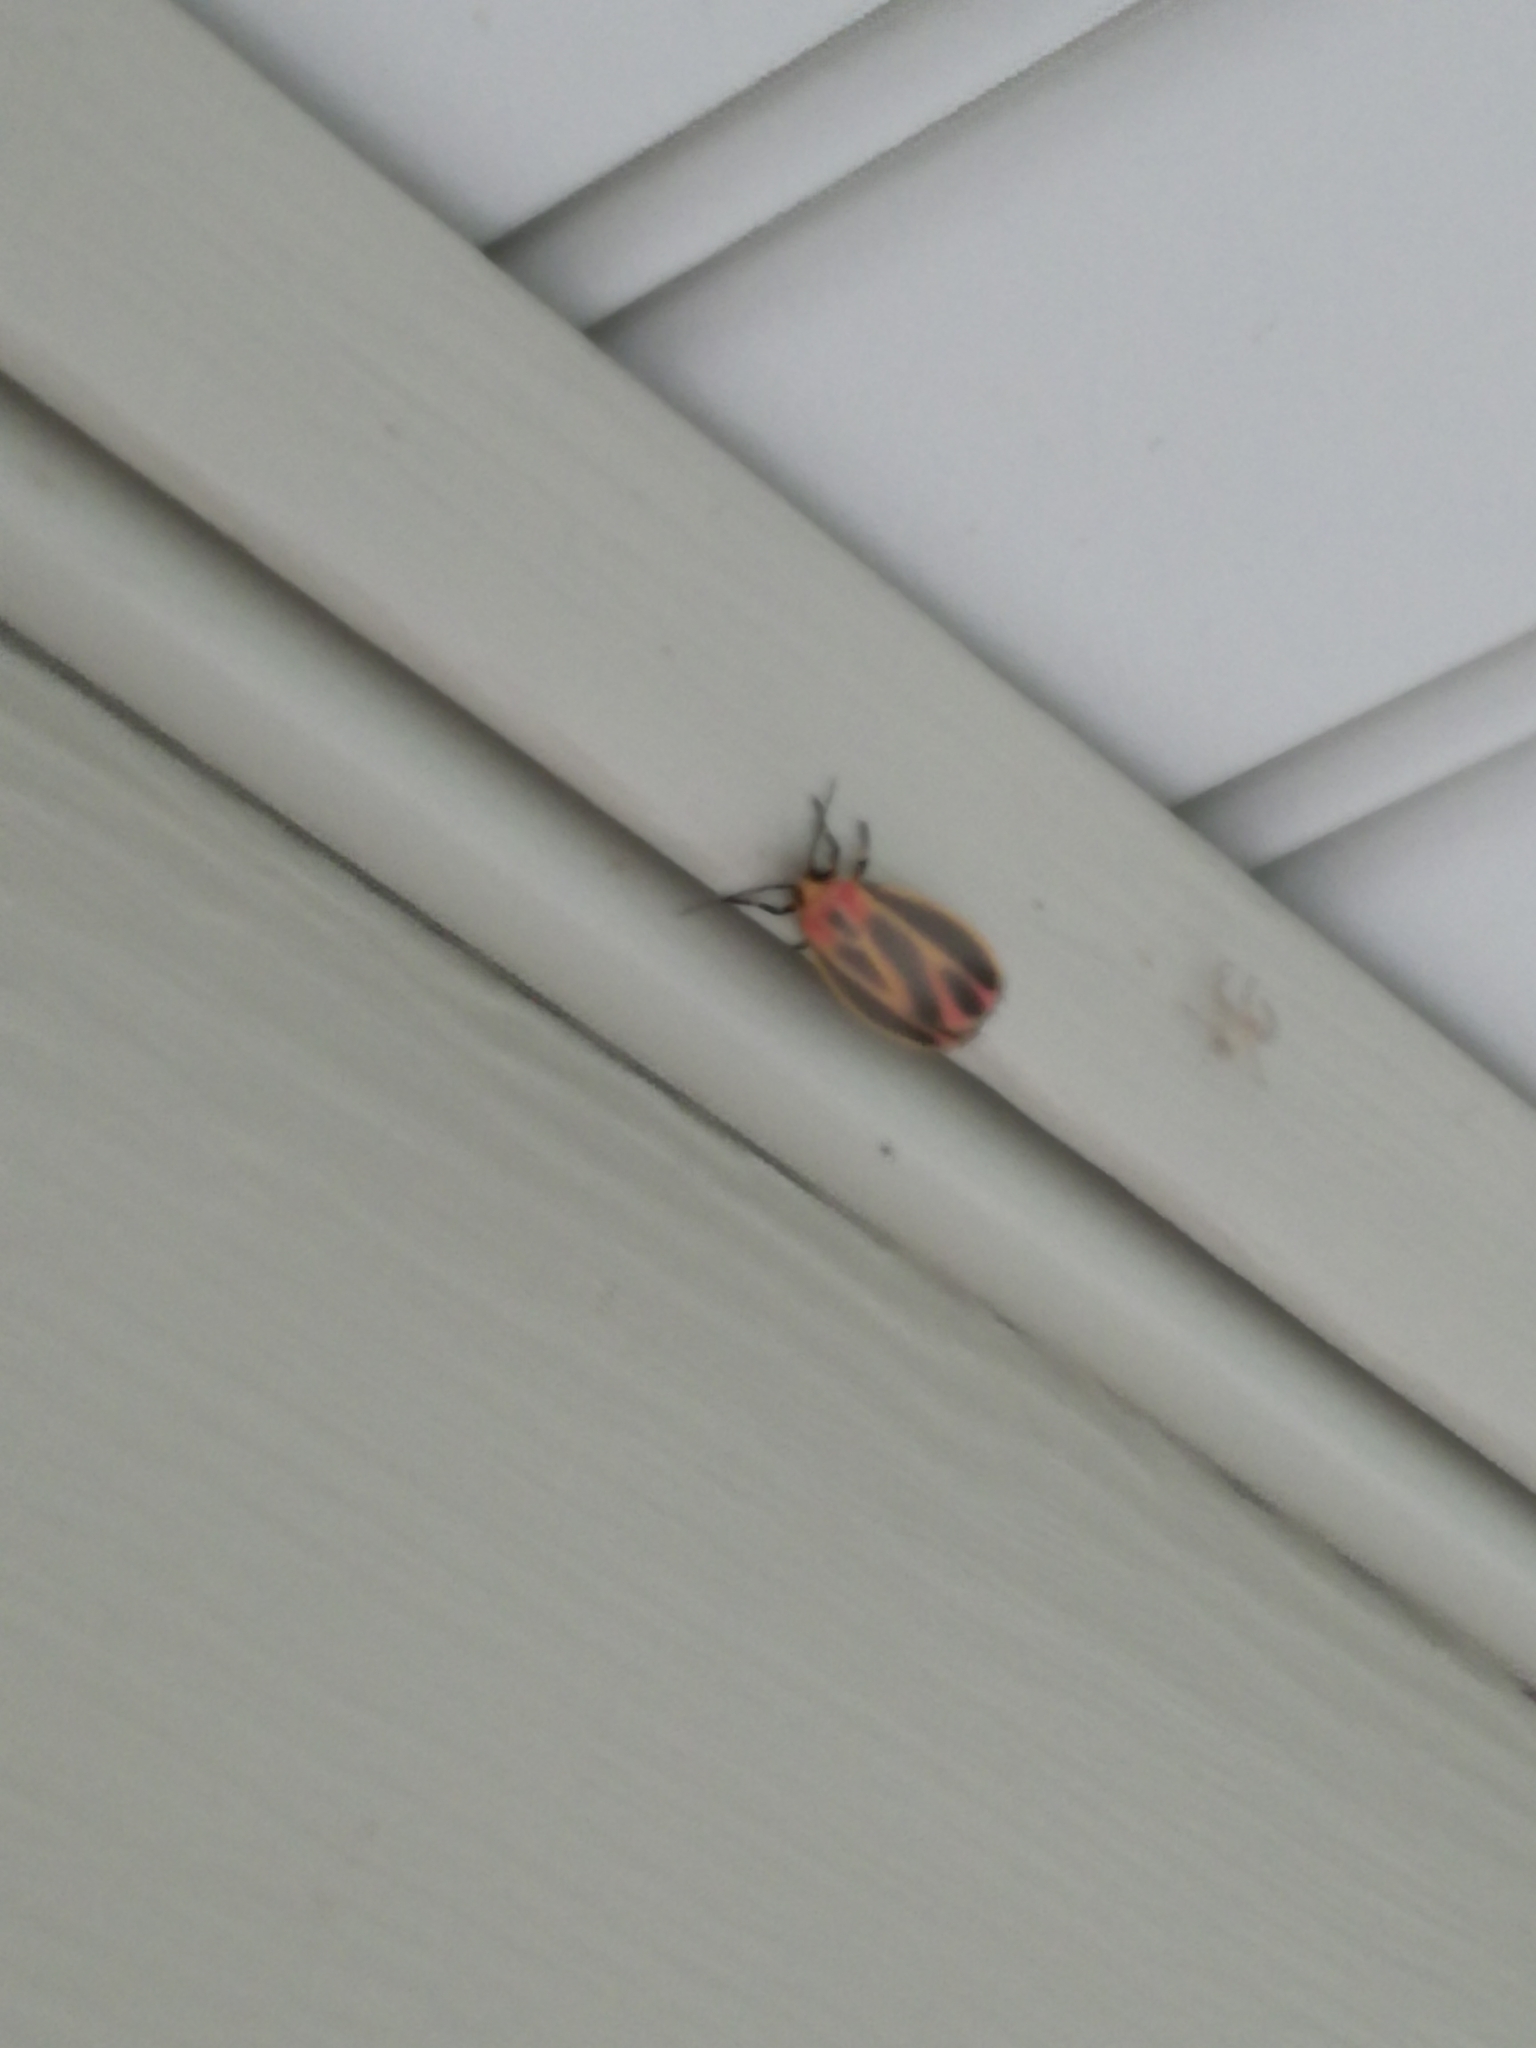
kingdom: Animalia
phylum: Arthropoda
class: Insecta
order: Lepidoptera
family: Erebidae
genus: Hypoprepia
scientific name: Hypoprepia fucosa
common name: Painted lichen moth
